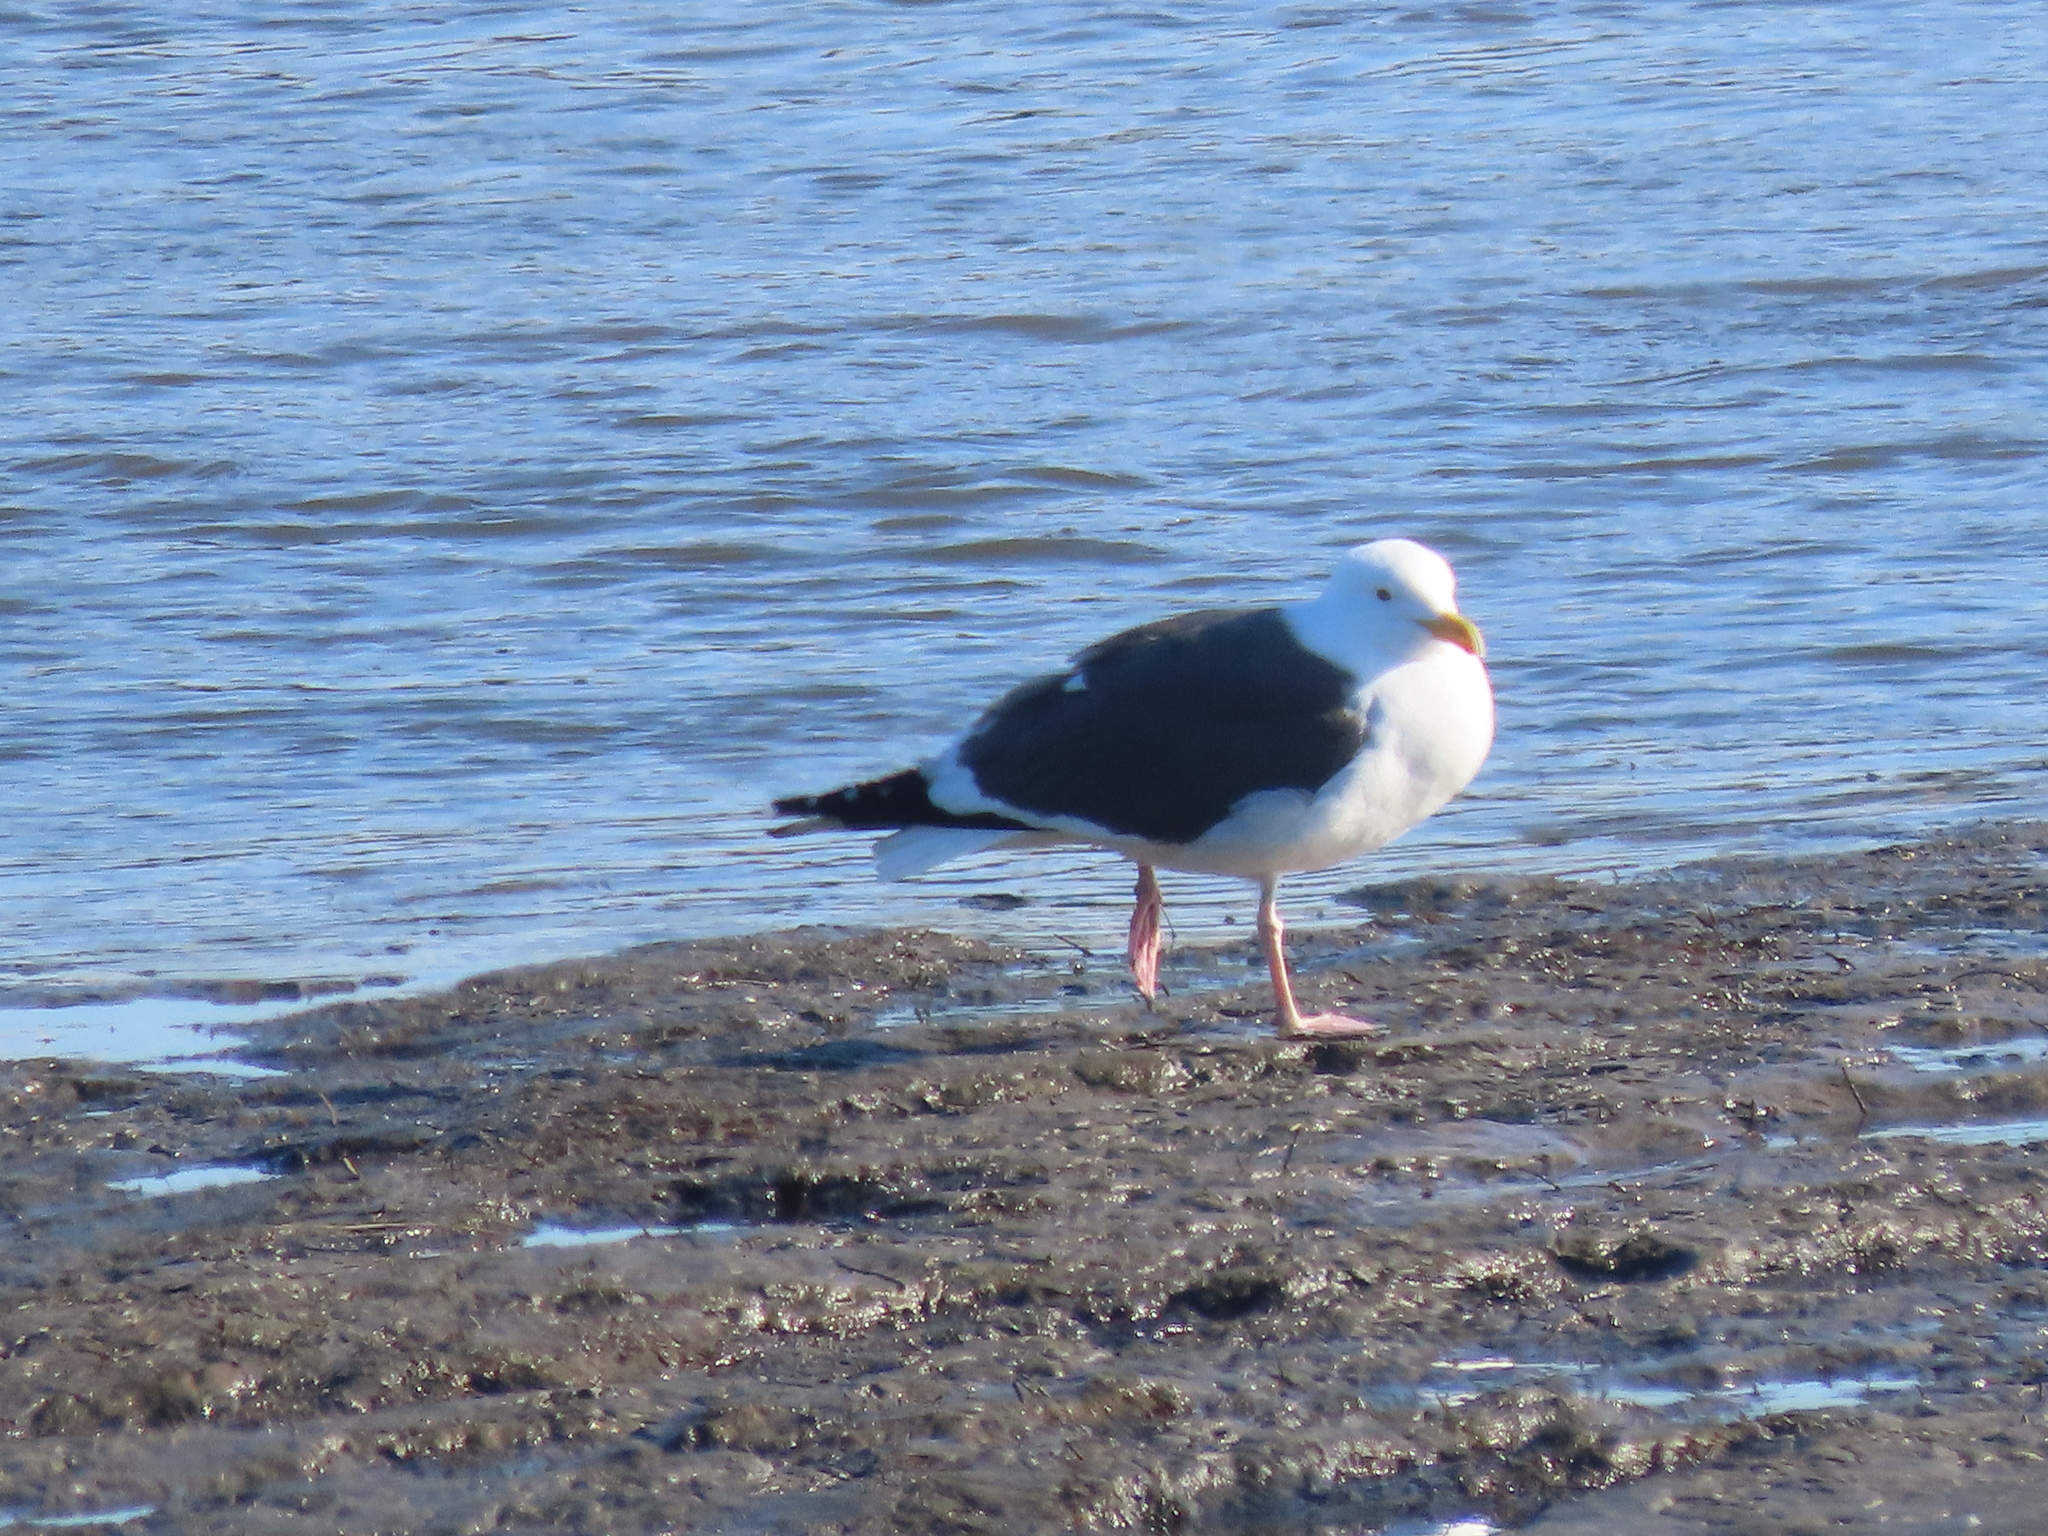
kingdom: Animalia
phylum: Chordata
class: Aves
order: Charadriiformes
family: Laridae
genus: Larus
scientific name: Larus occidentalis
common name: Western gull
